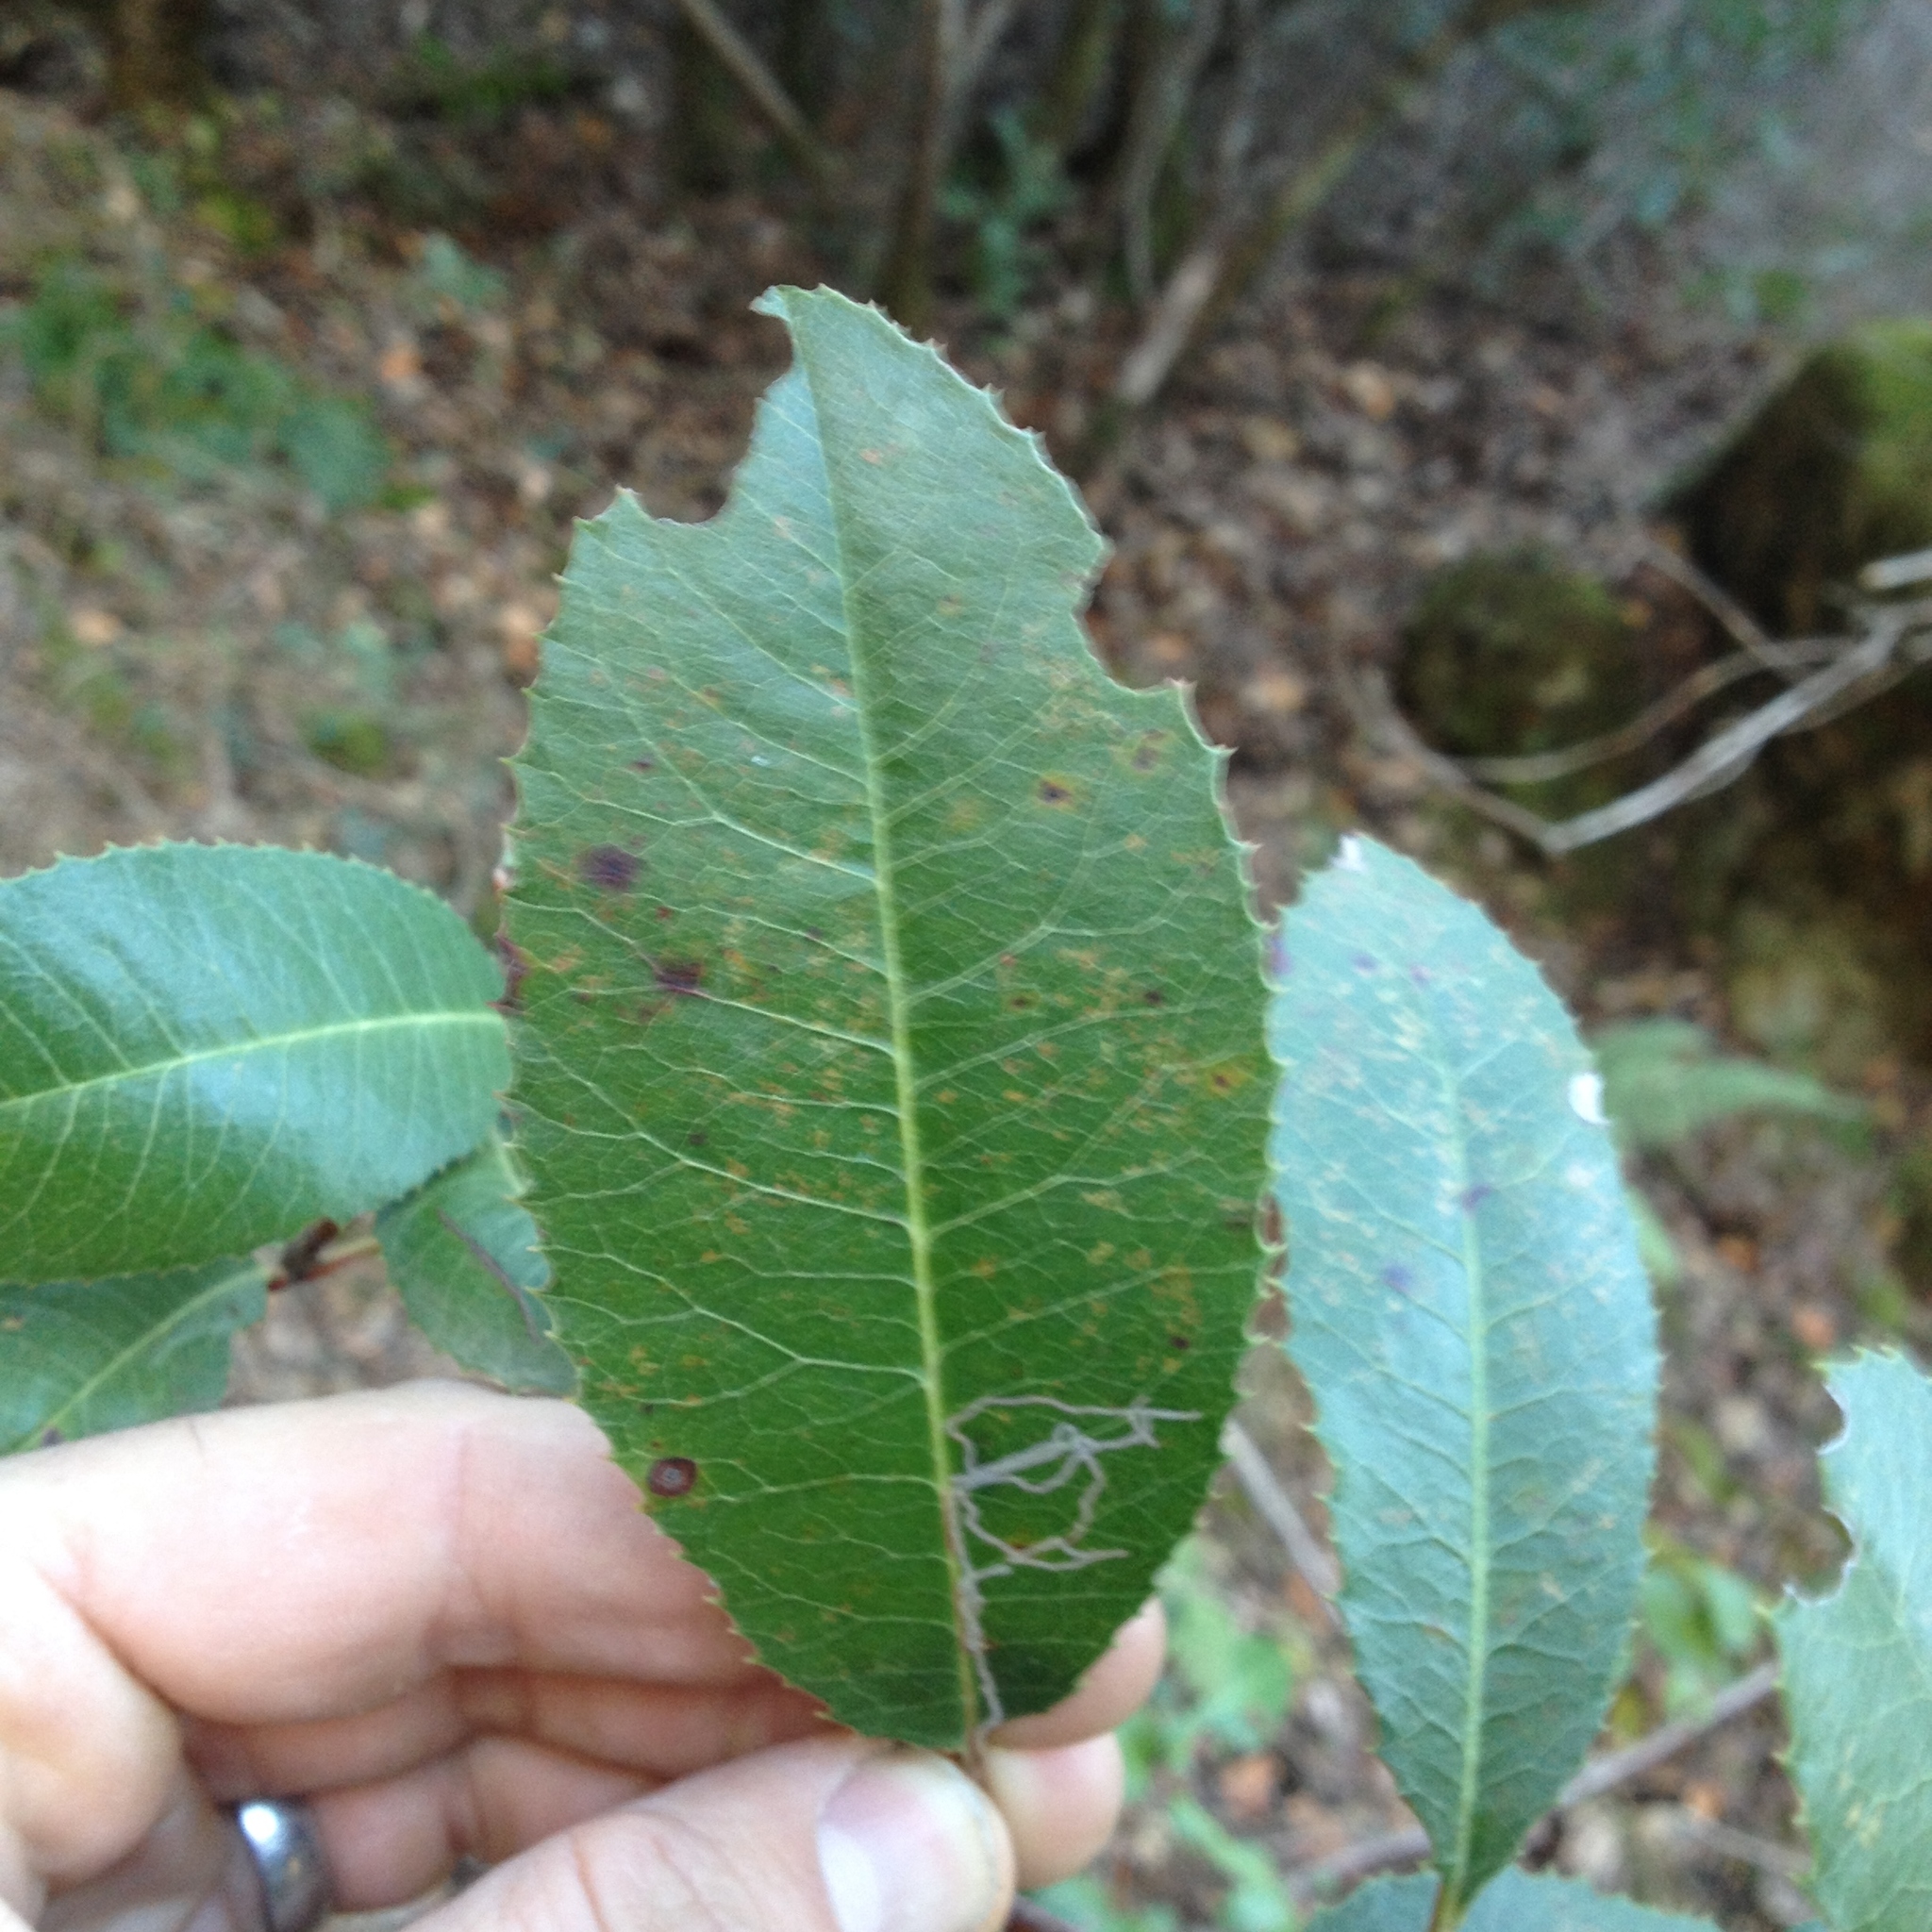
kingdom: Plantae
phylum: Tracheophyta
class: Magnoliopsida
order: Rosales
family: Rosaceae
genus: Heteromeles
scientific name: Heteromeles arbutifolia
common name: California-holly
